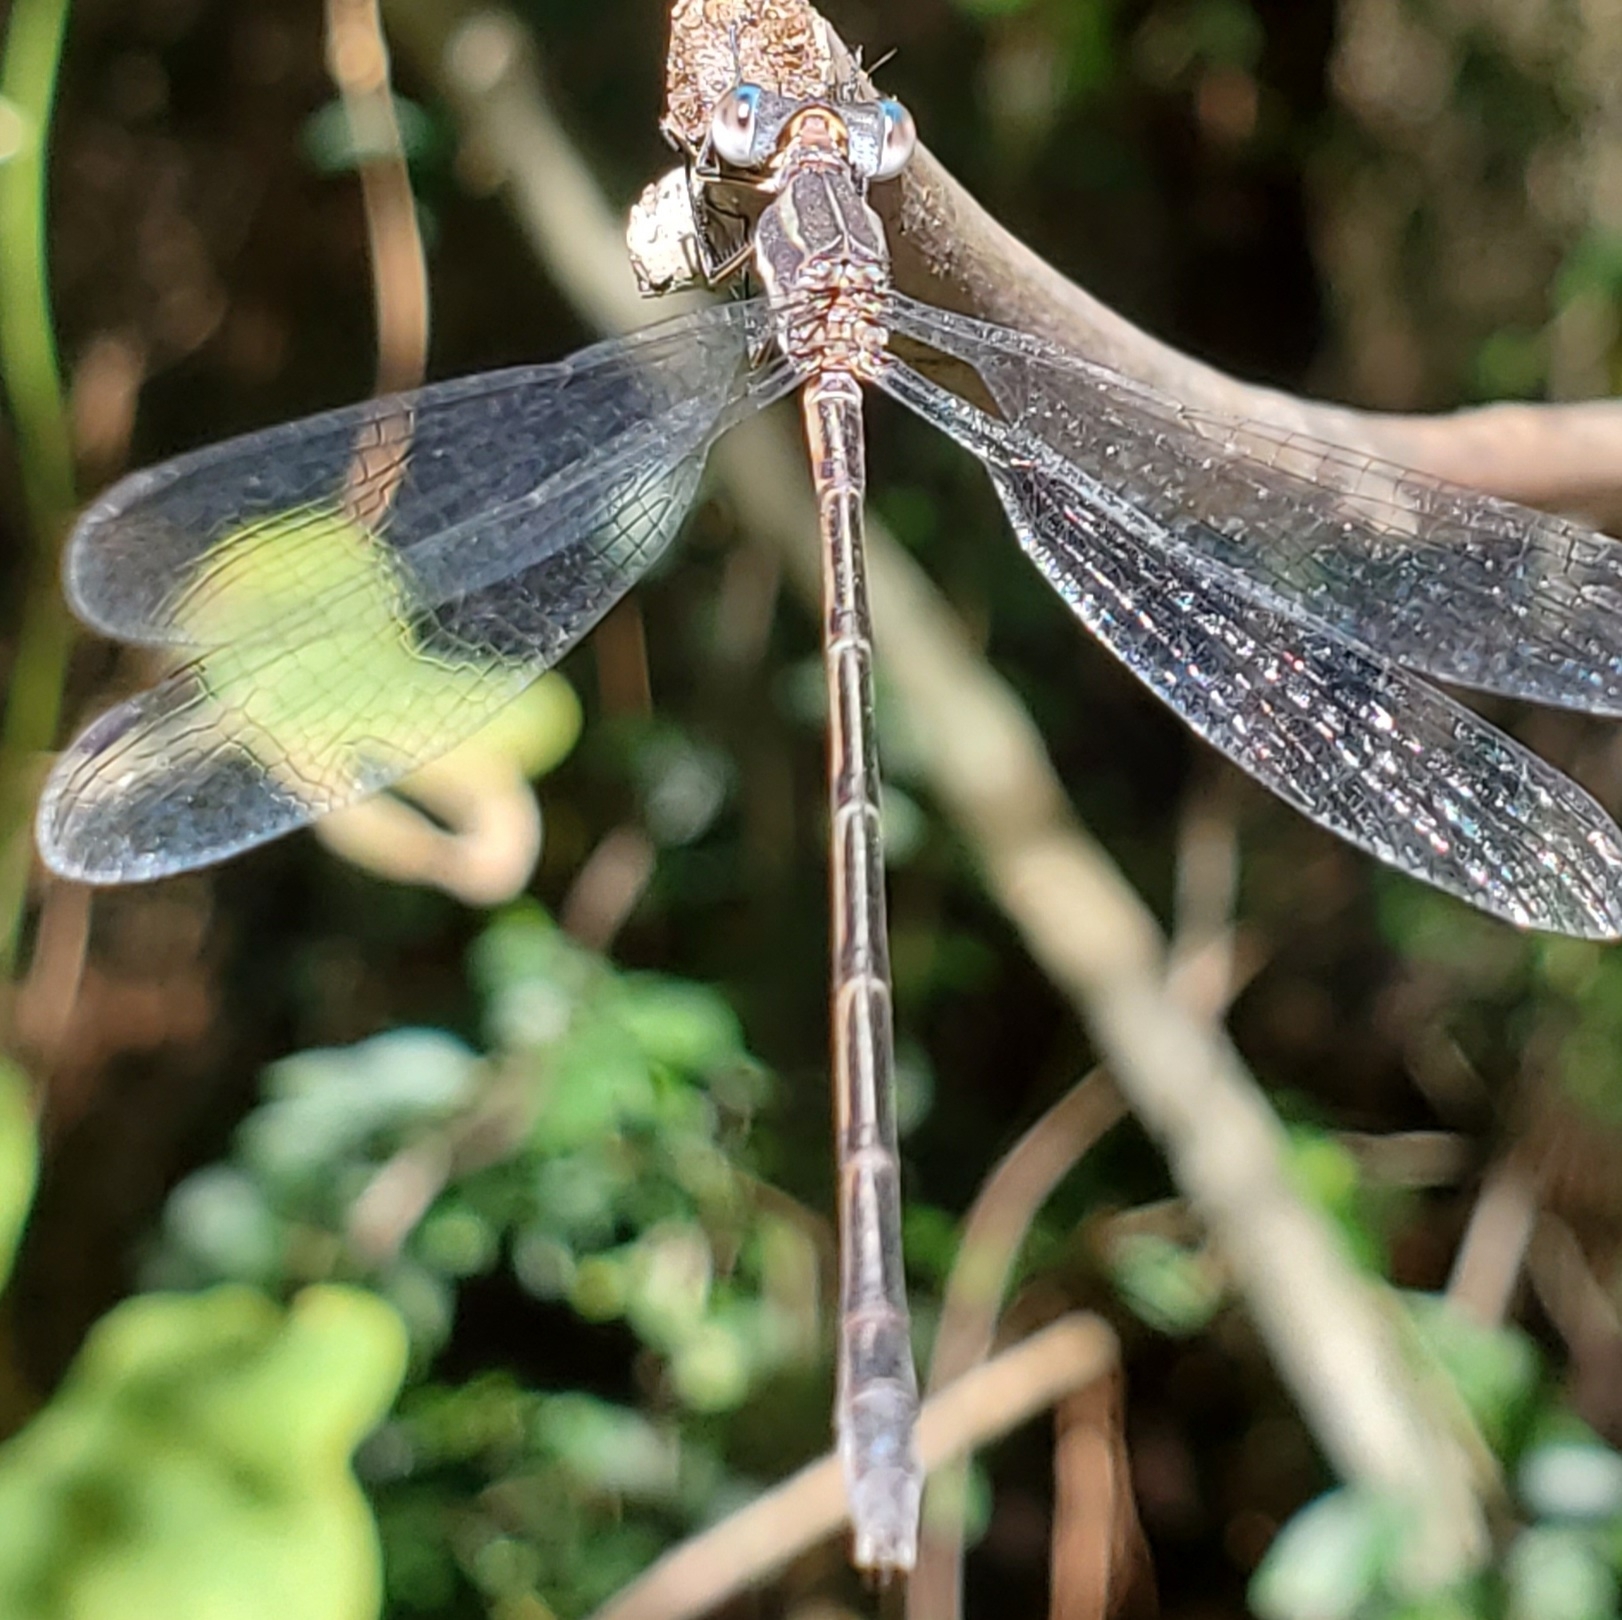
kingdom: Animalia
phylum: Arthropoda
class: Insecta
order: Odonata
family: Lestidae
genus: Lestes
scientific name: Lestes australis
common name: Southern spreadwing
